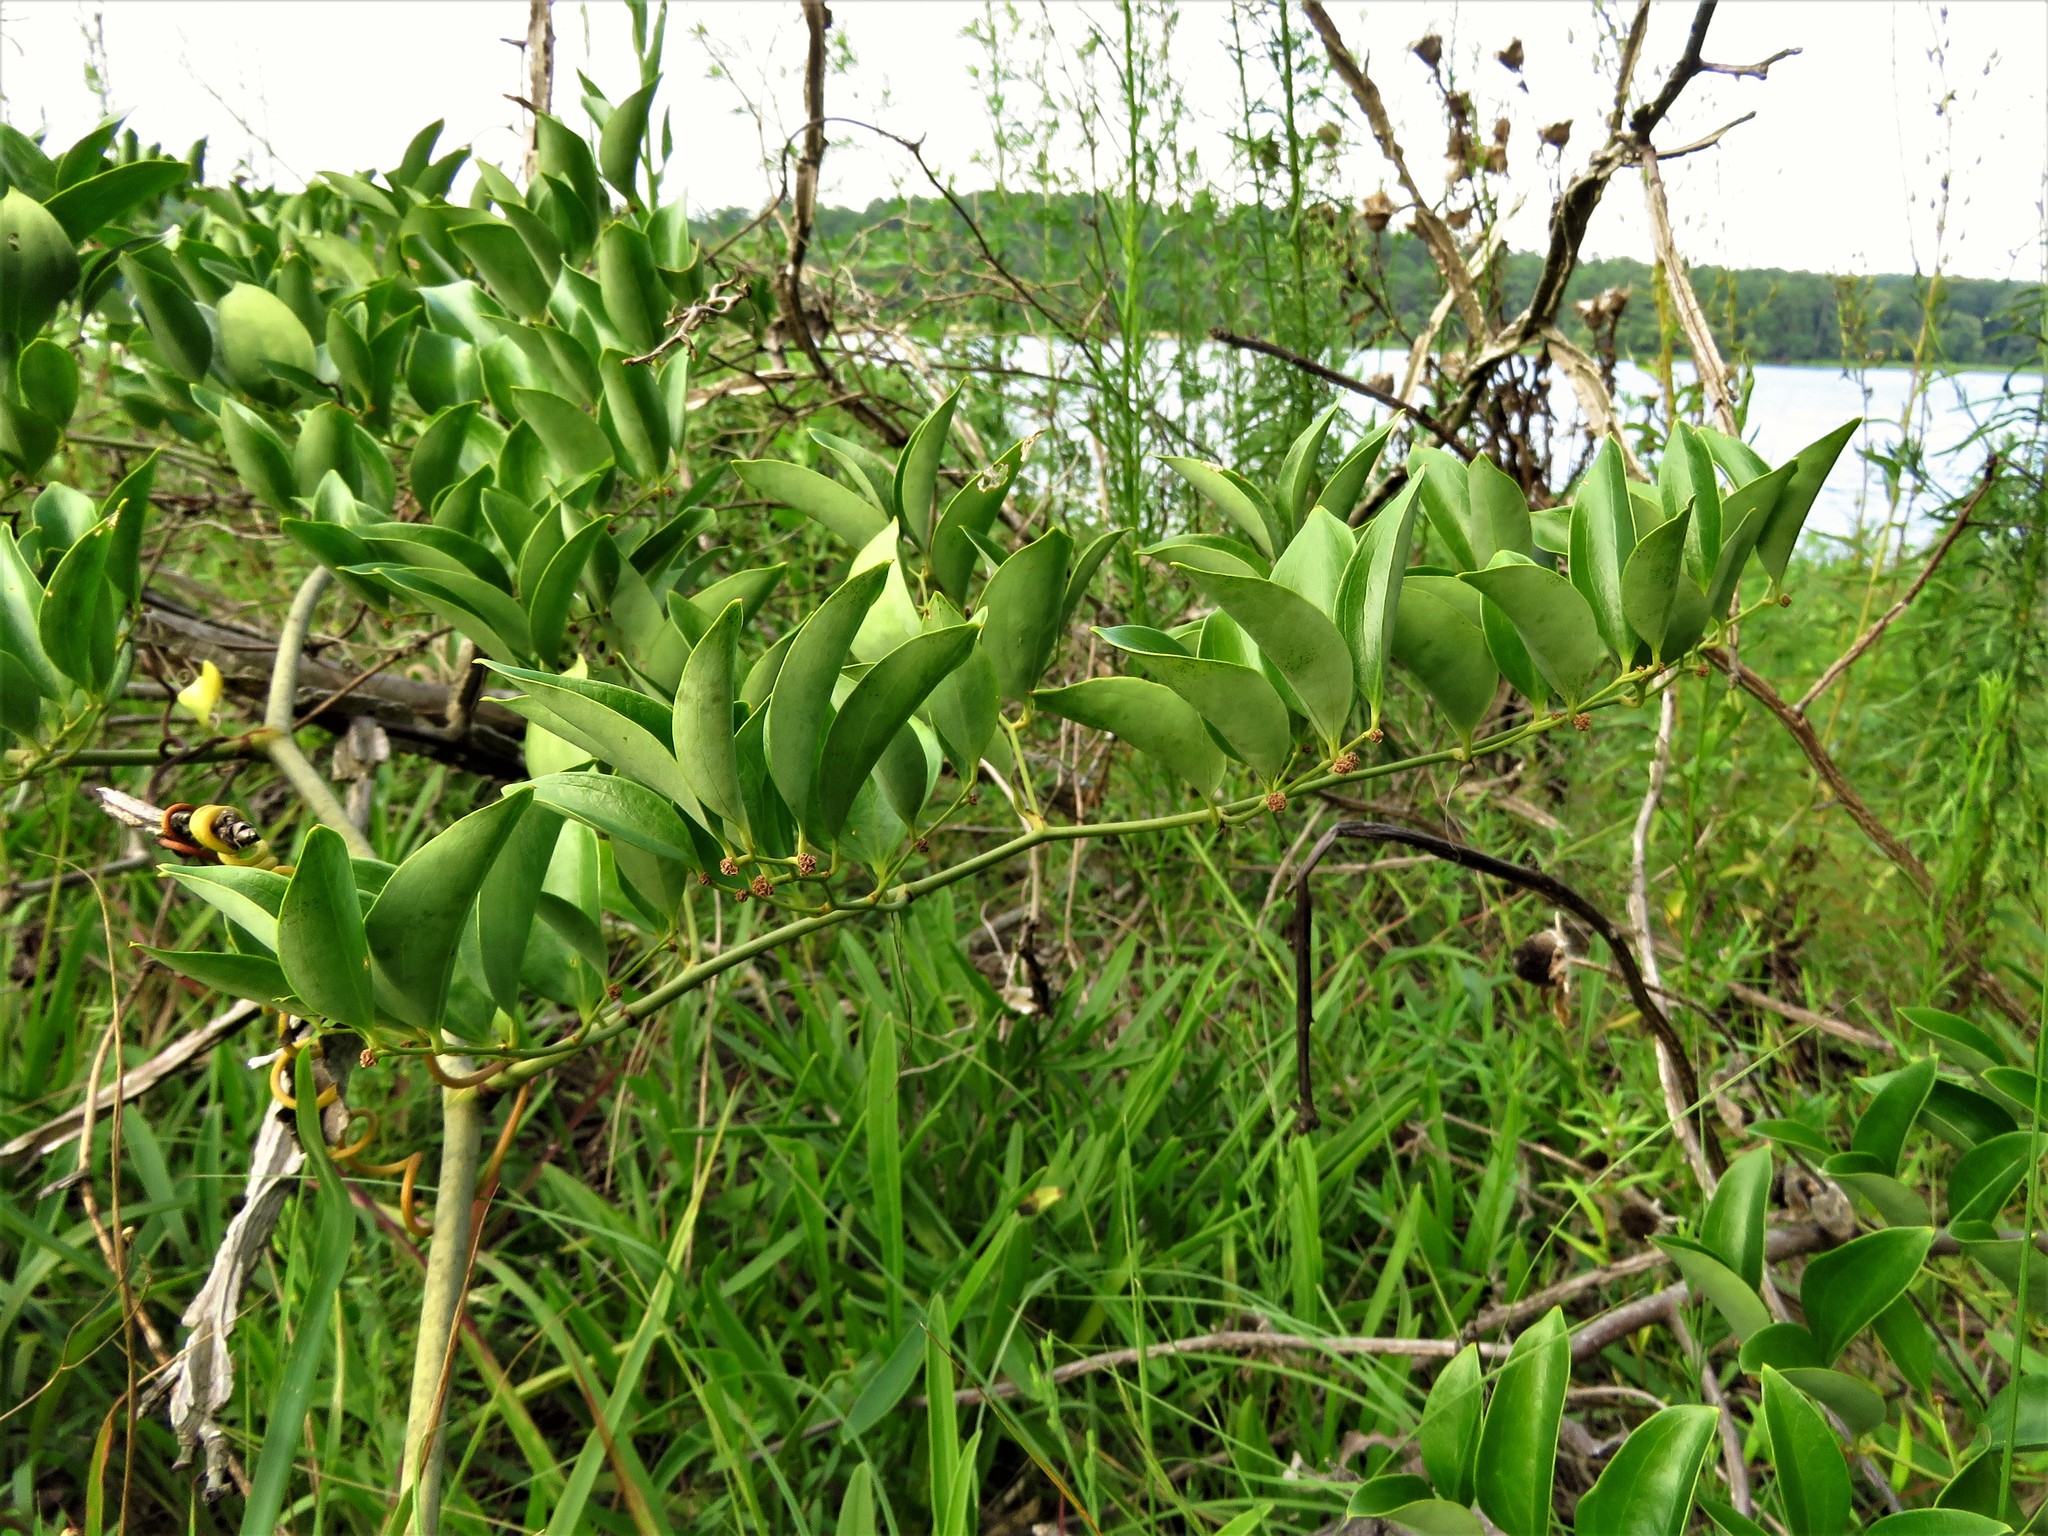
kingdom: Plantae
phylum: Tracheophyta
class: Liliopsida
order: Liliales
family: Smilacaceae
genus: Smilax
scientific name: Smilax laurifolia
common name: Bamboovine
